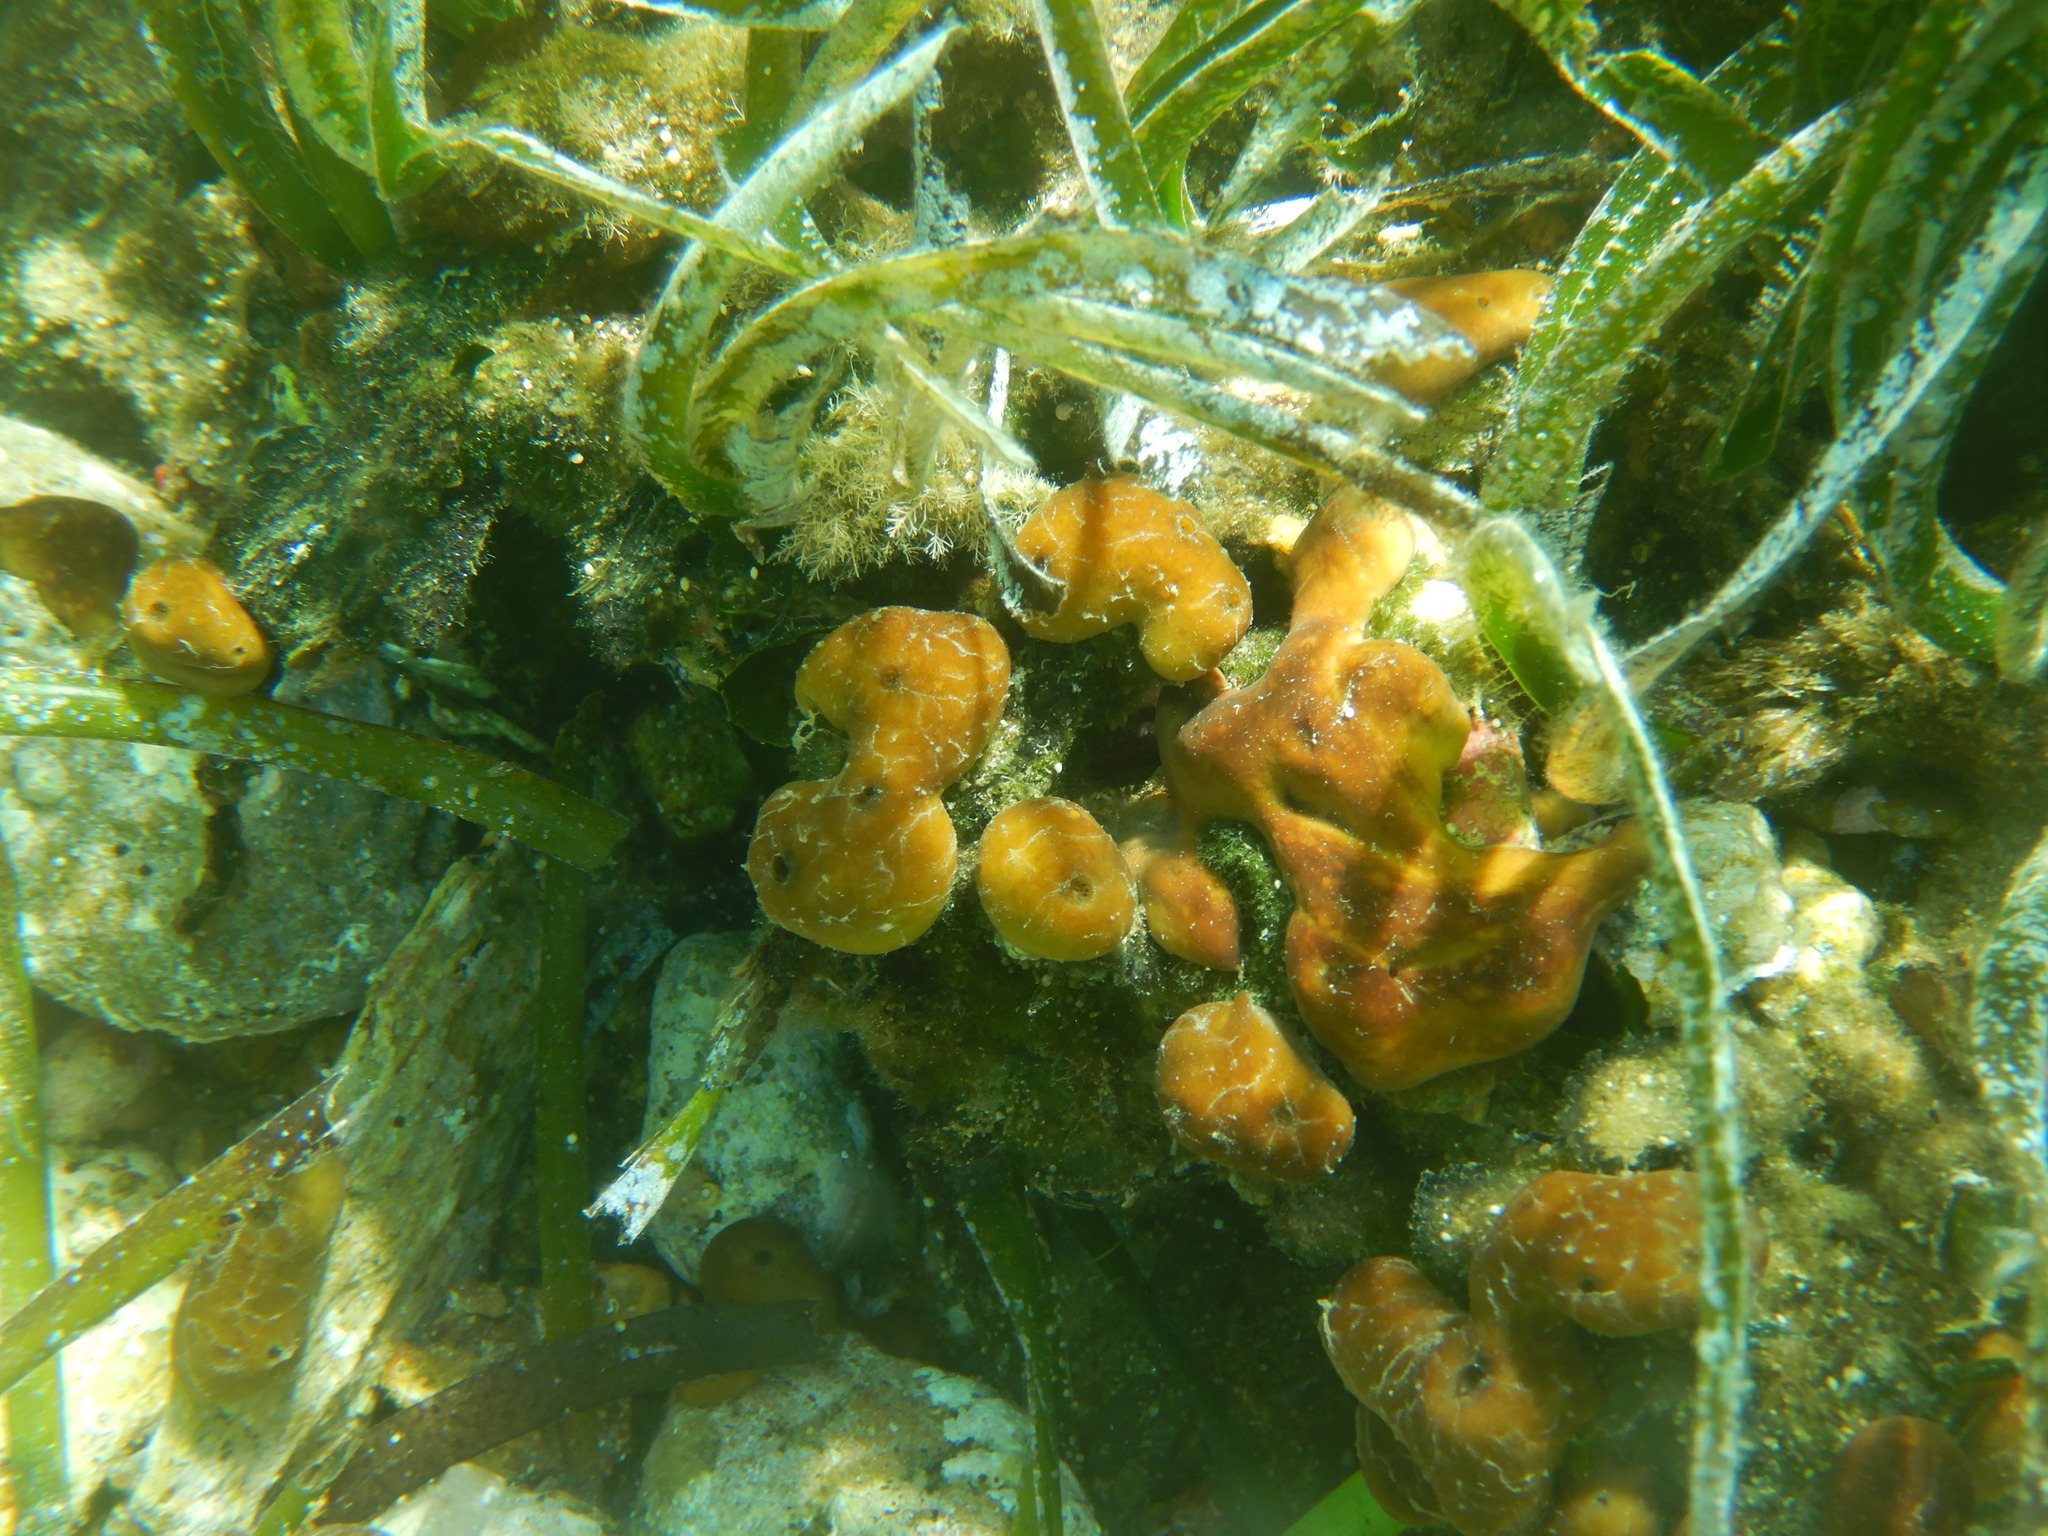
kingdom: Animalia
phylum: Porifera
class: Demospongiae
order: Chondrillida
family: Chondrillidae
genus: Chondrilla
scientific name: Chondrilla nucula
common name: Chicken liver sponge
